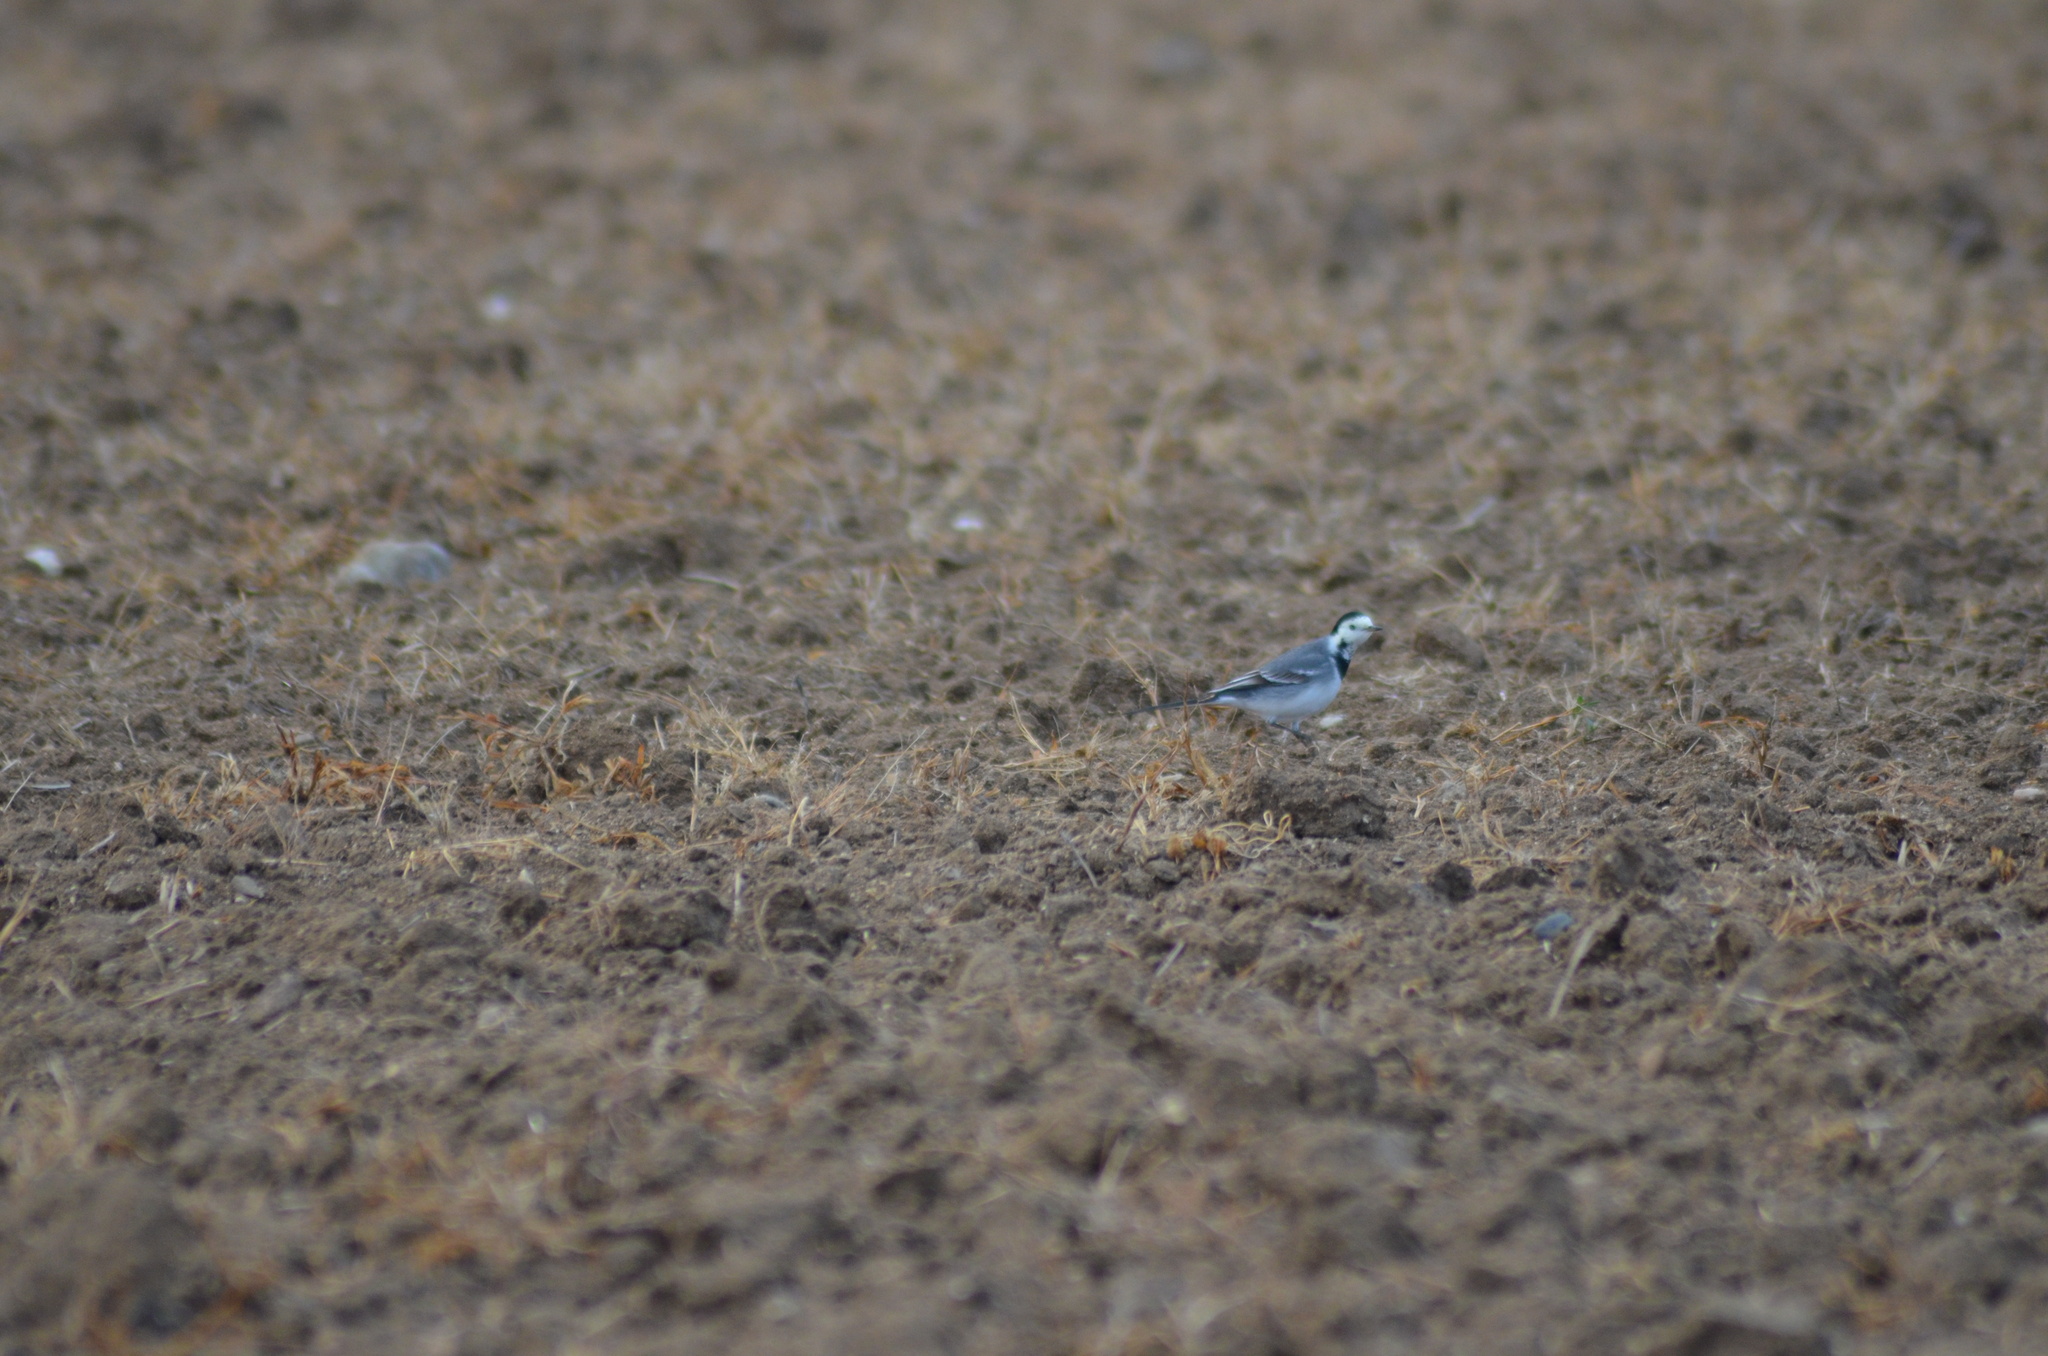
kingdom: Animalia
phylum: Chordata
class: Aves
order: Passeriformes
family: Motacillidae
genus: Motacilla
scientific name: Motacilla alba
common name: White wagtail
